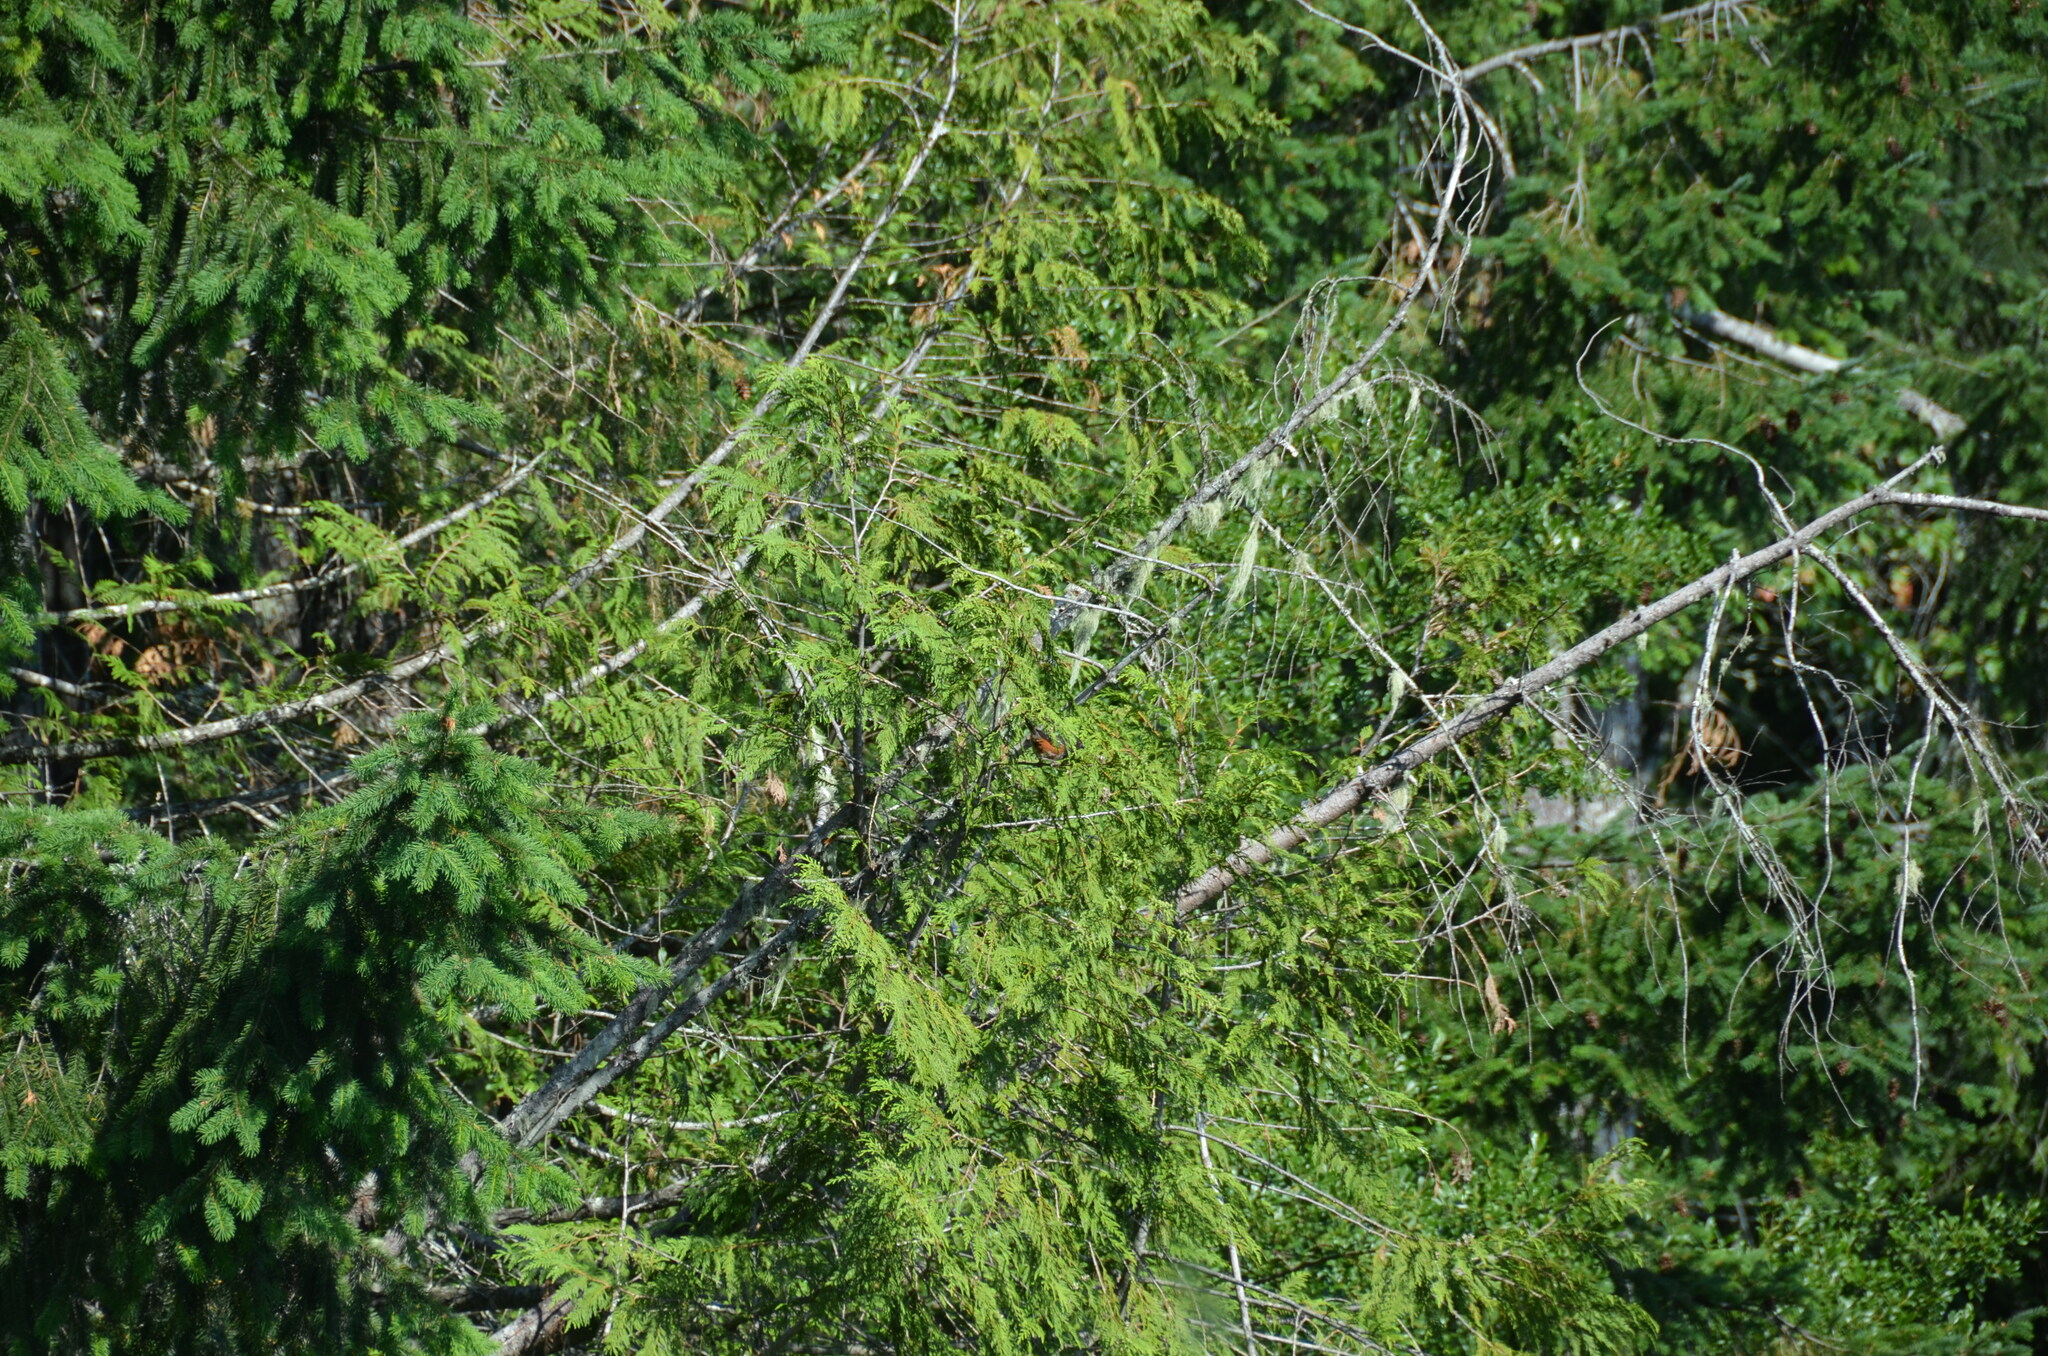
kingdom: Animalia
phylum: Chordata
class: Aves
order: Passeriformes
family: Passerellidae
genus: Pipilo
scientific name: Pipilo maculatus
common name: Spotted towhee
